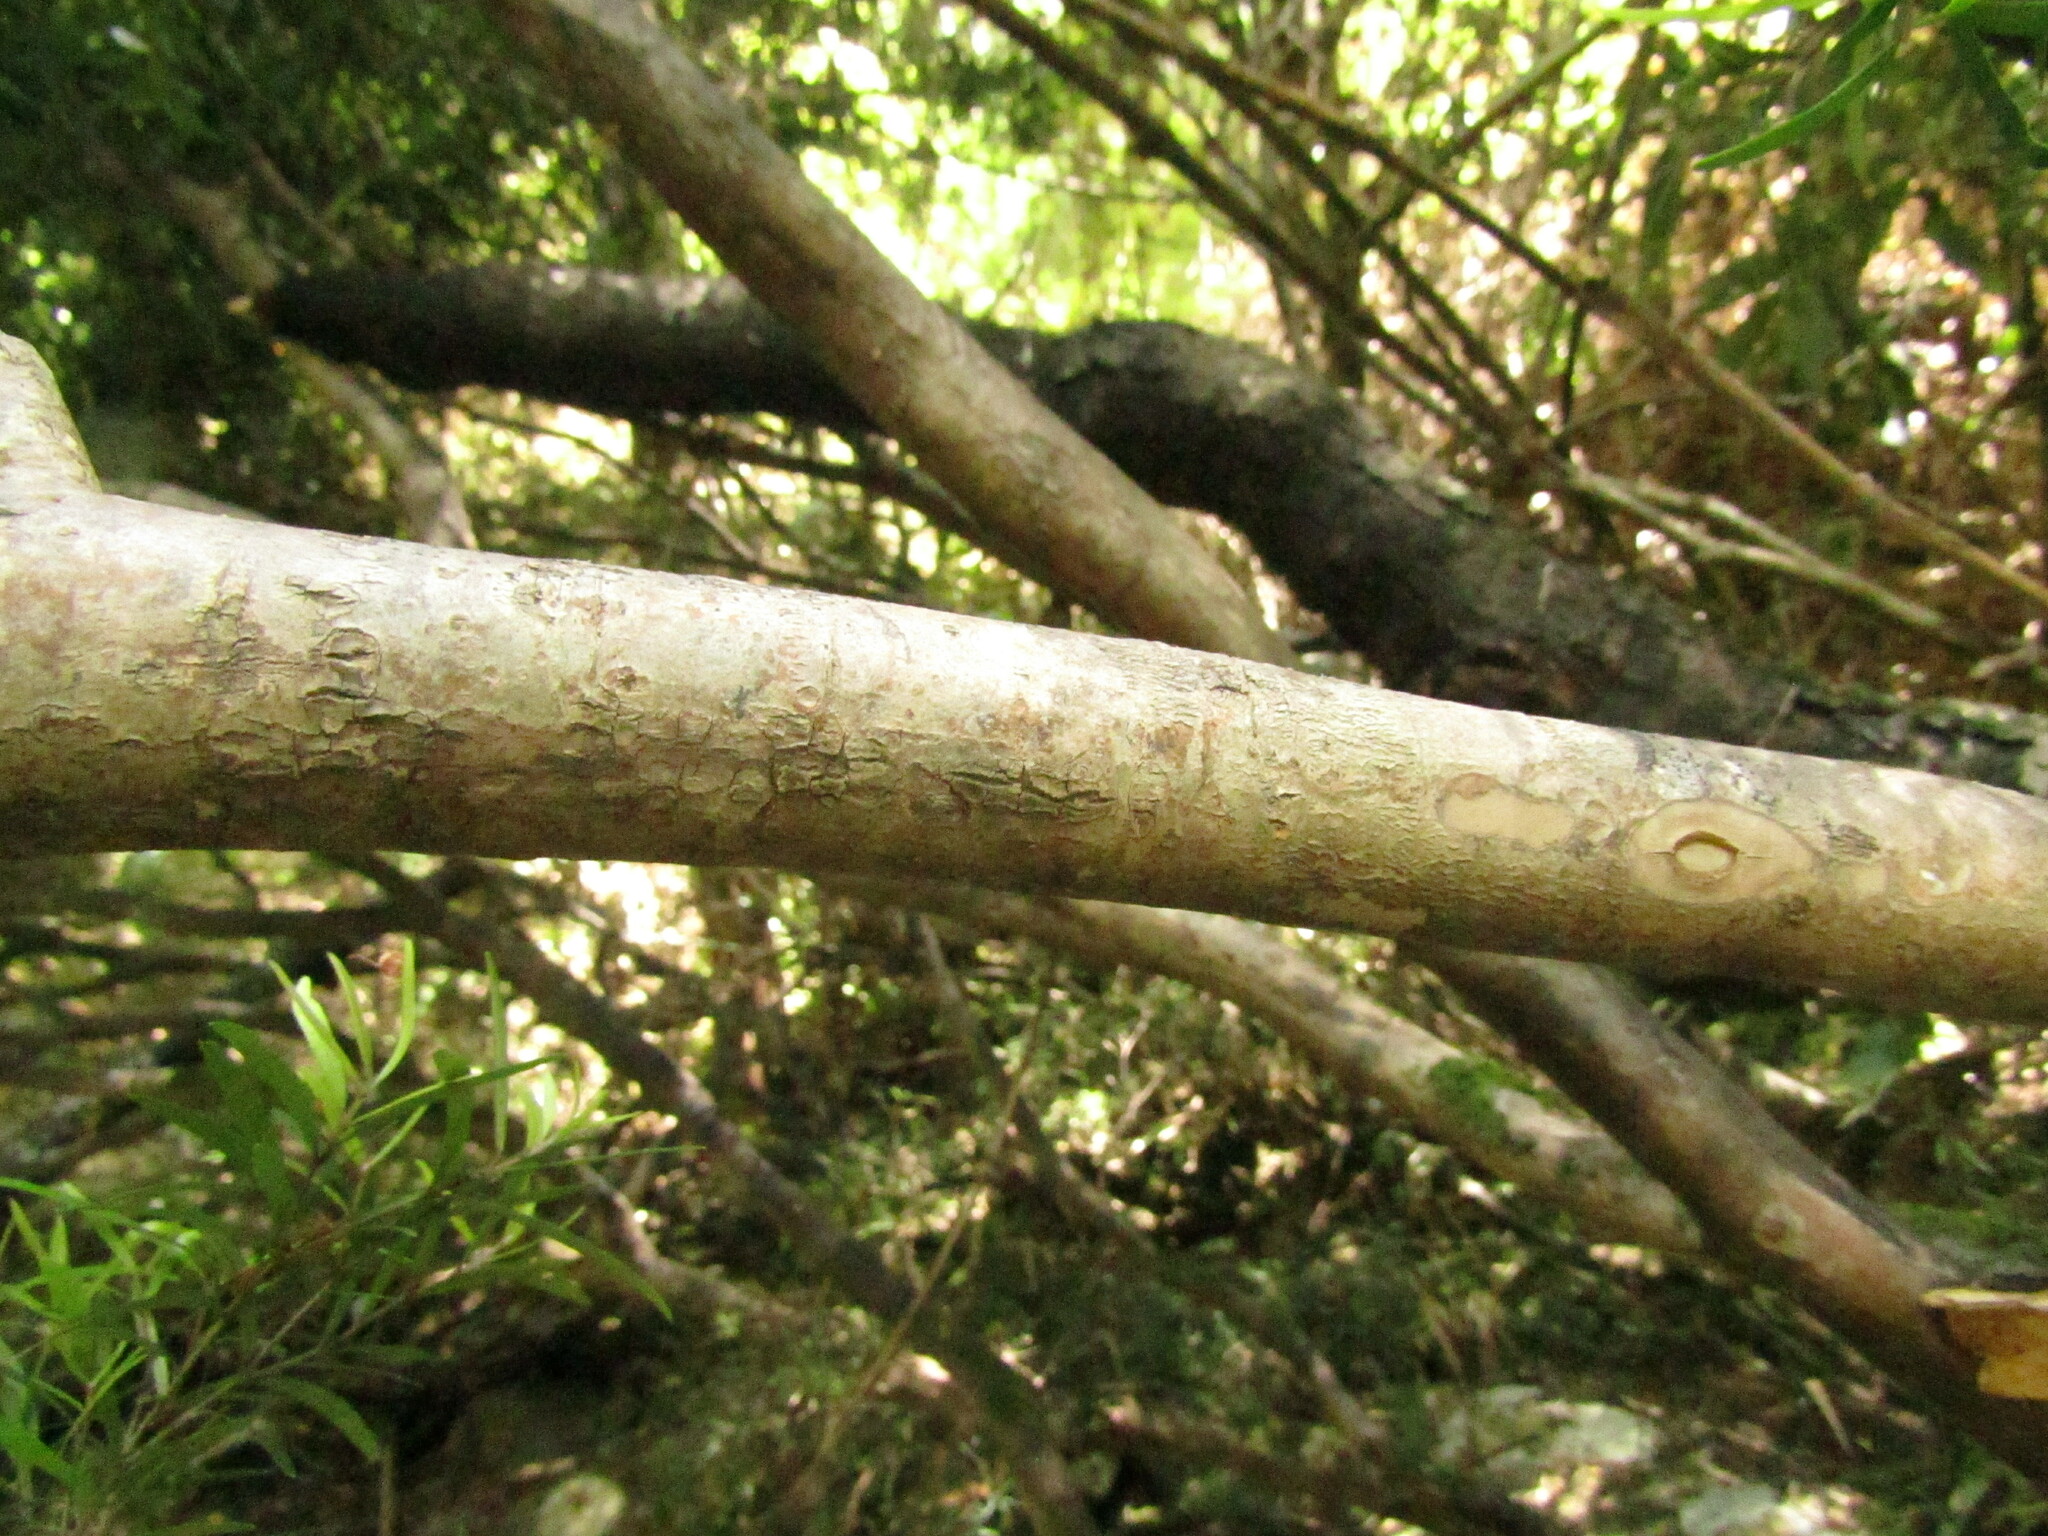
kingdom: Plantae
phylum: Tracheophyta
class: Magnoliopsida
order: Myrtales
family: Myrtaceae
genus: Myrceugenia
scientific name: Myrceugenia lanceolata
